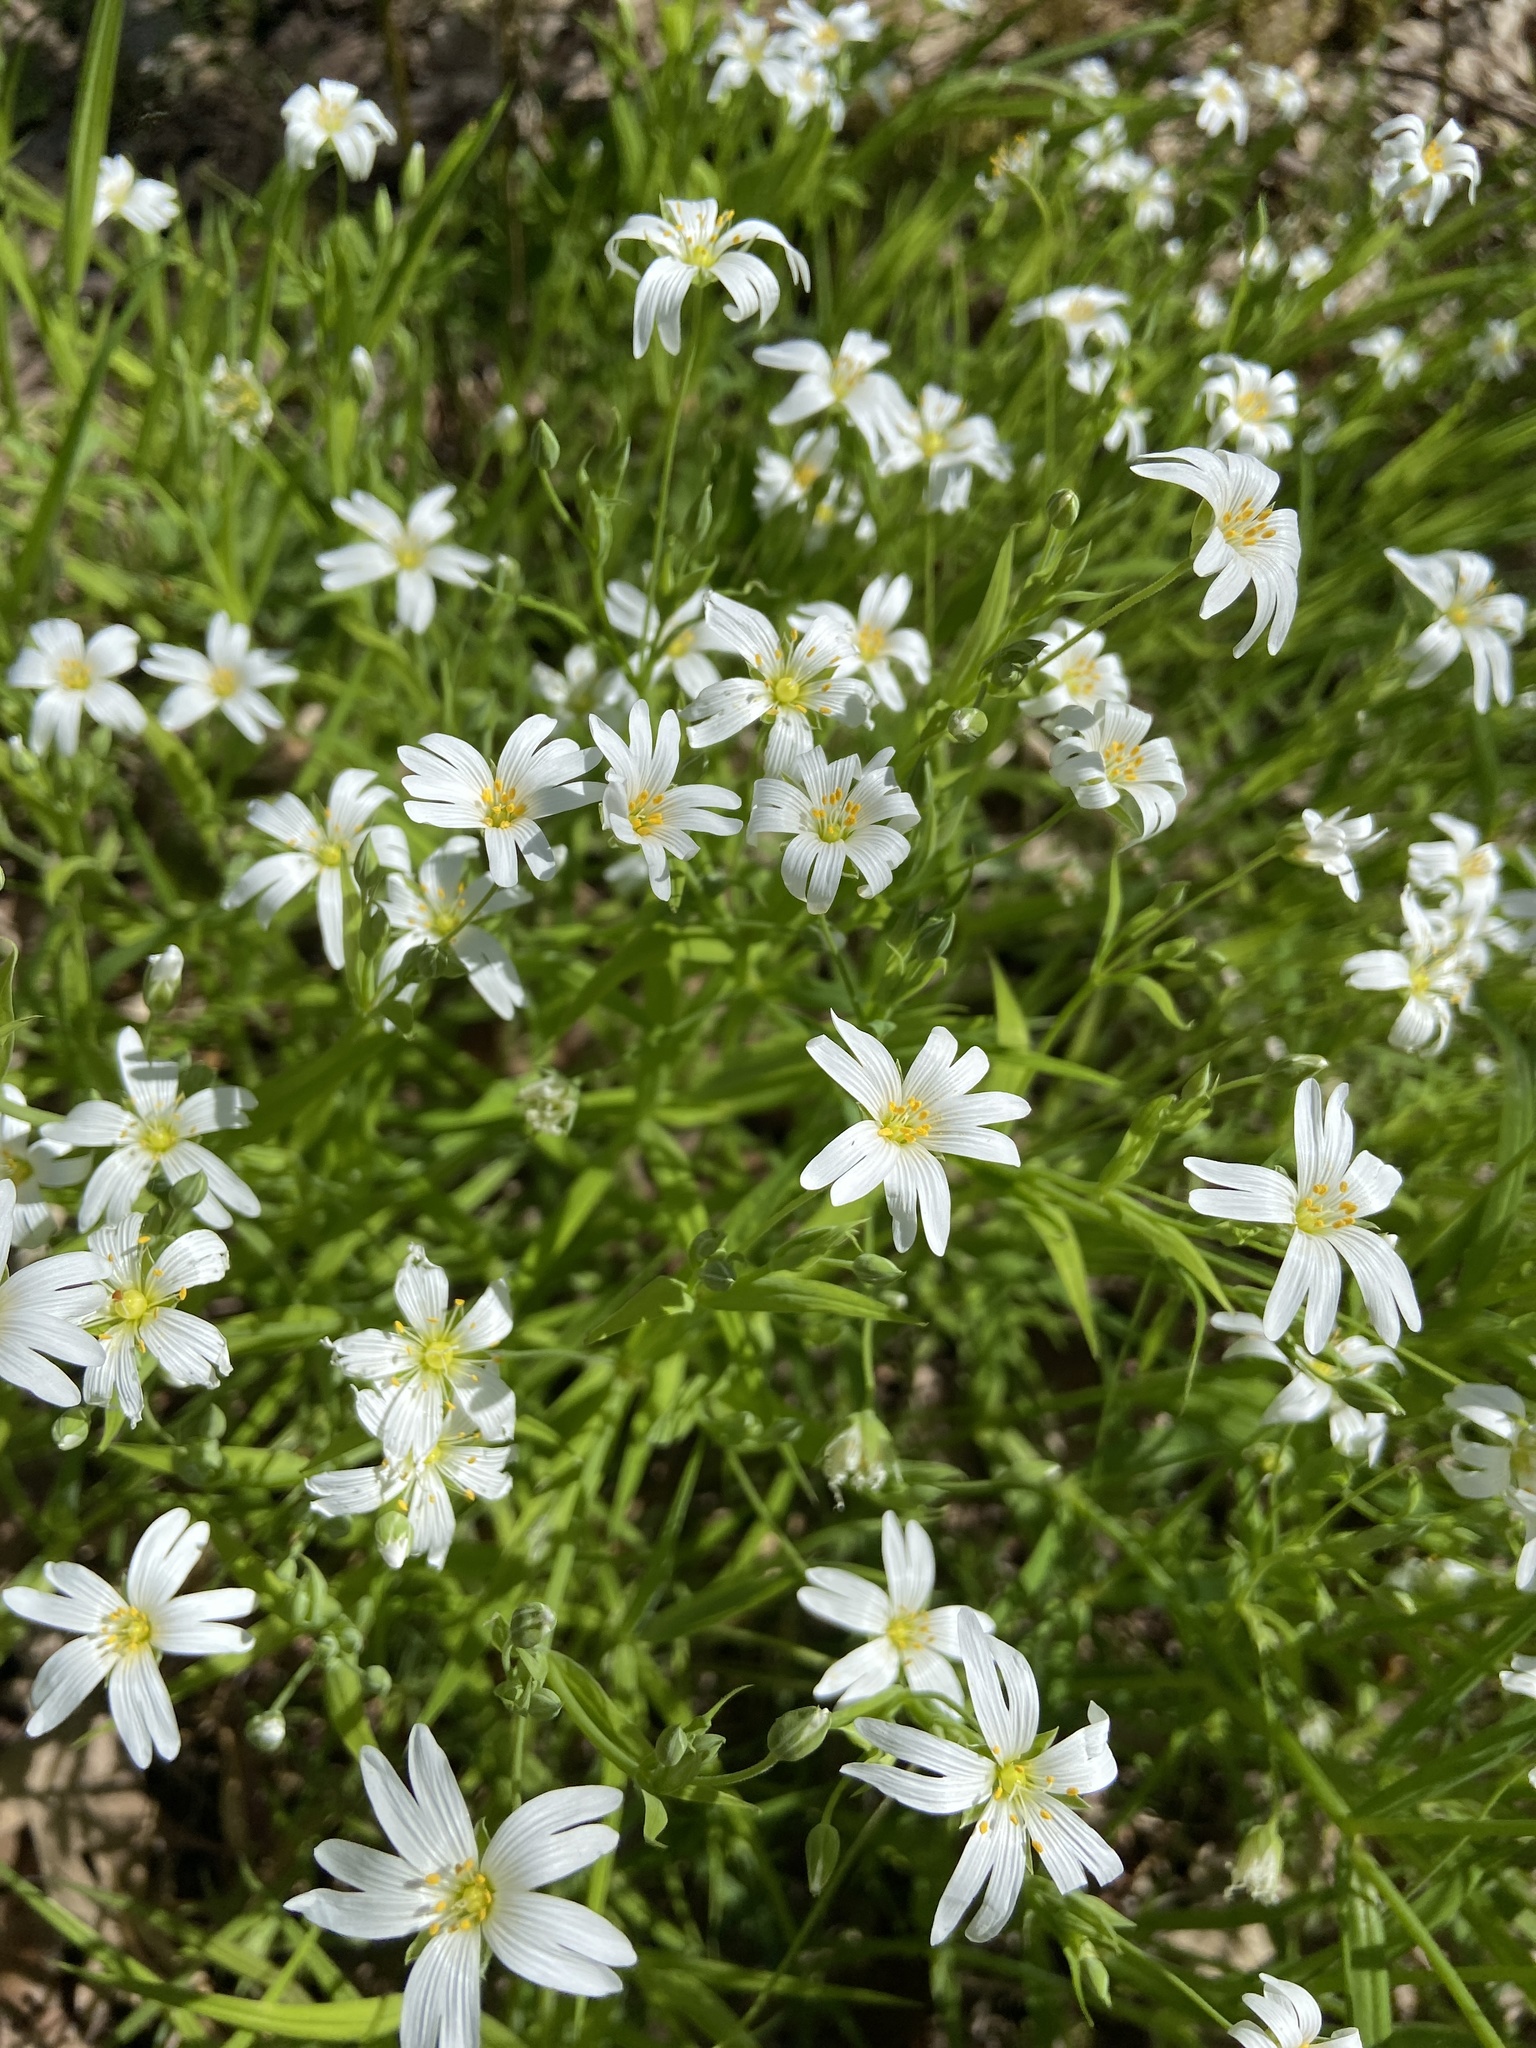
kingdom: Plantae
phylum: Tracheophyta
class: Magnoliopsida
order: Caryophyllales
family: Caryophyllaceae
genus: Rabelera
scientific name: Rabelera holostea
